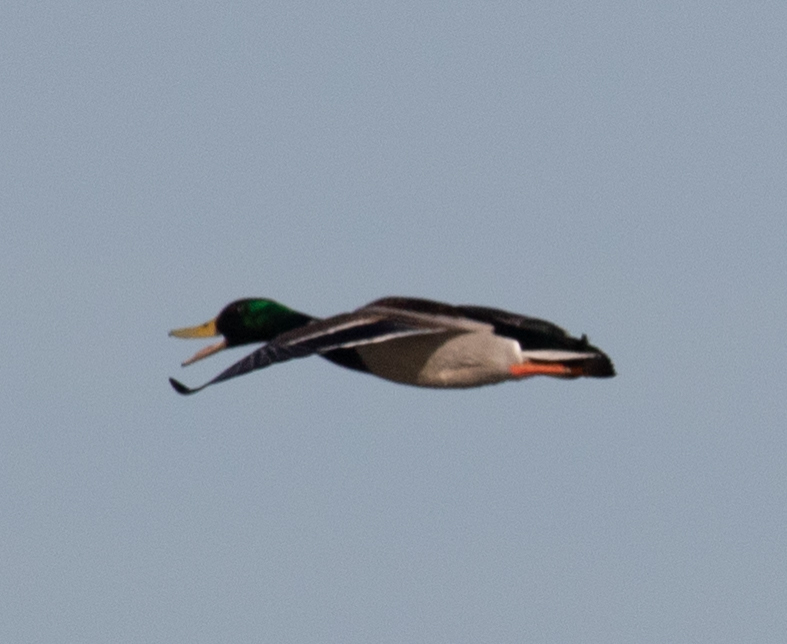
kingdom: Animalia
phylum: Chordata
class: Aves
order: Anseriformes
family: Anatidae
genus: Anas
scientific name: Anas platyrhynchos
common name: Mallard
